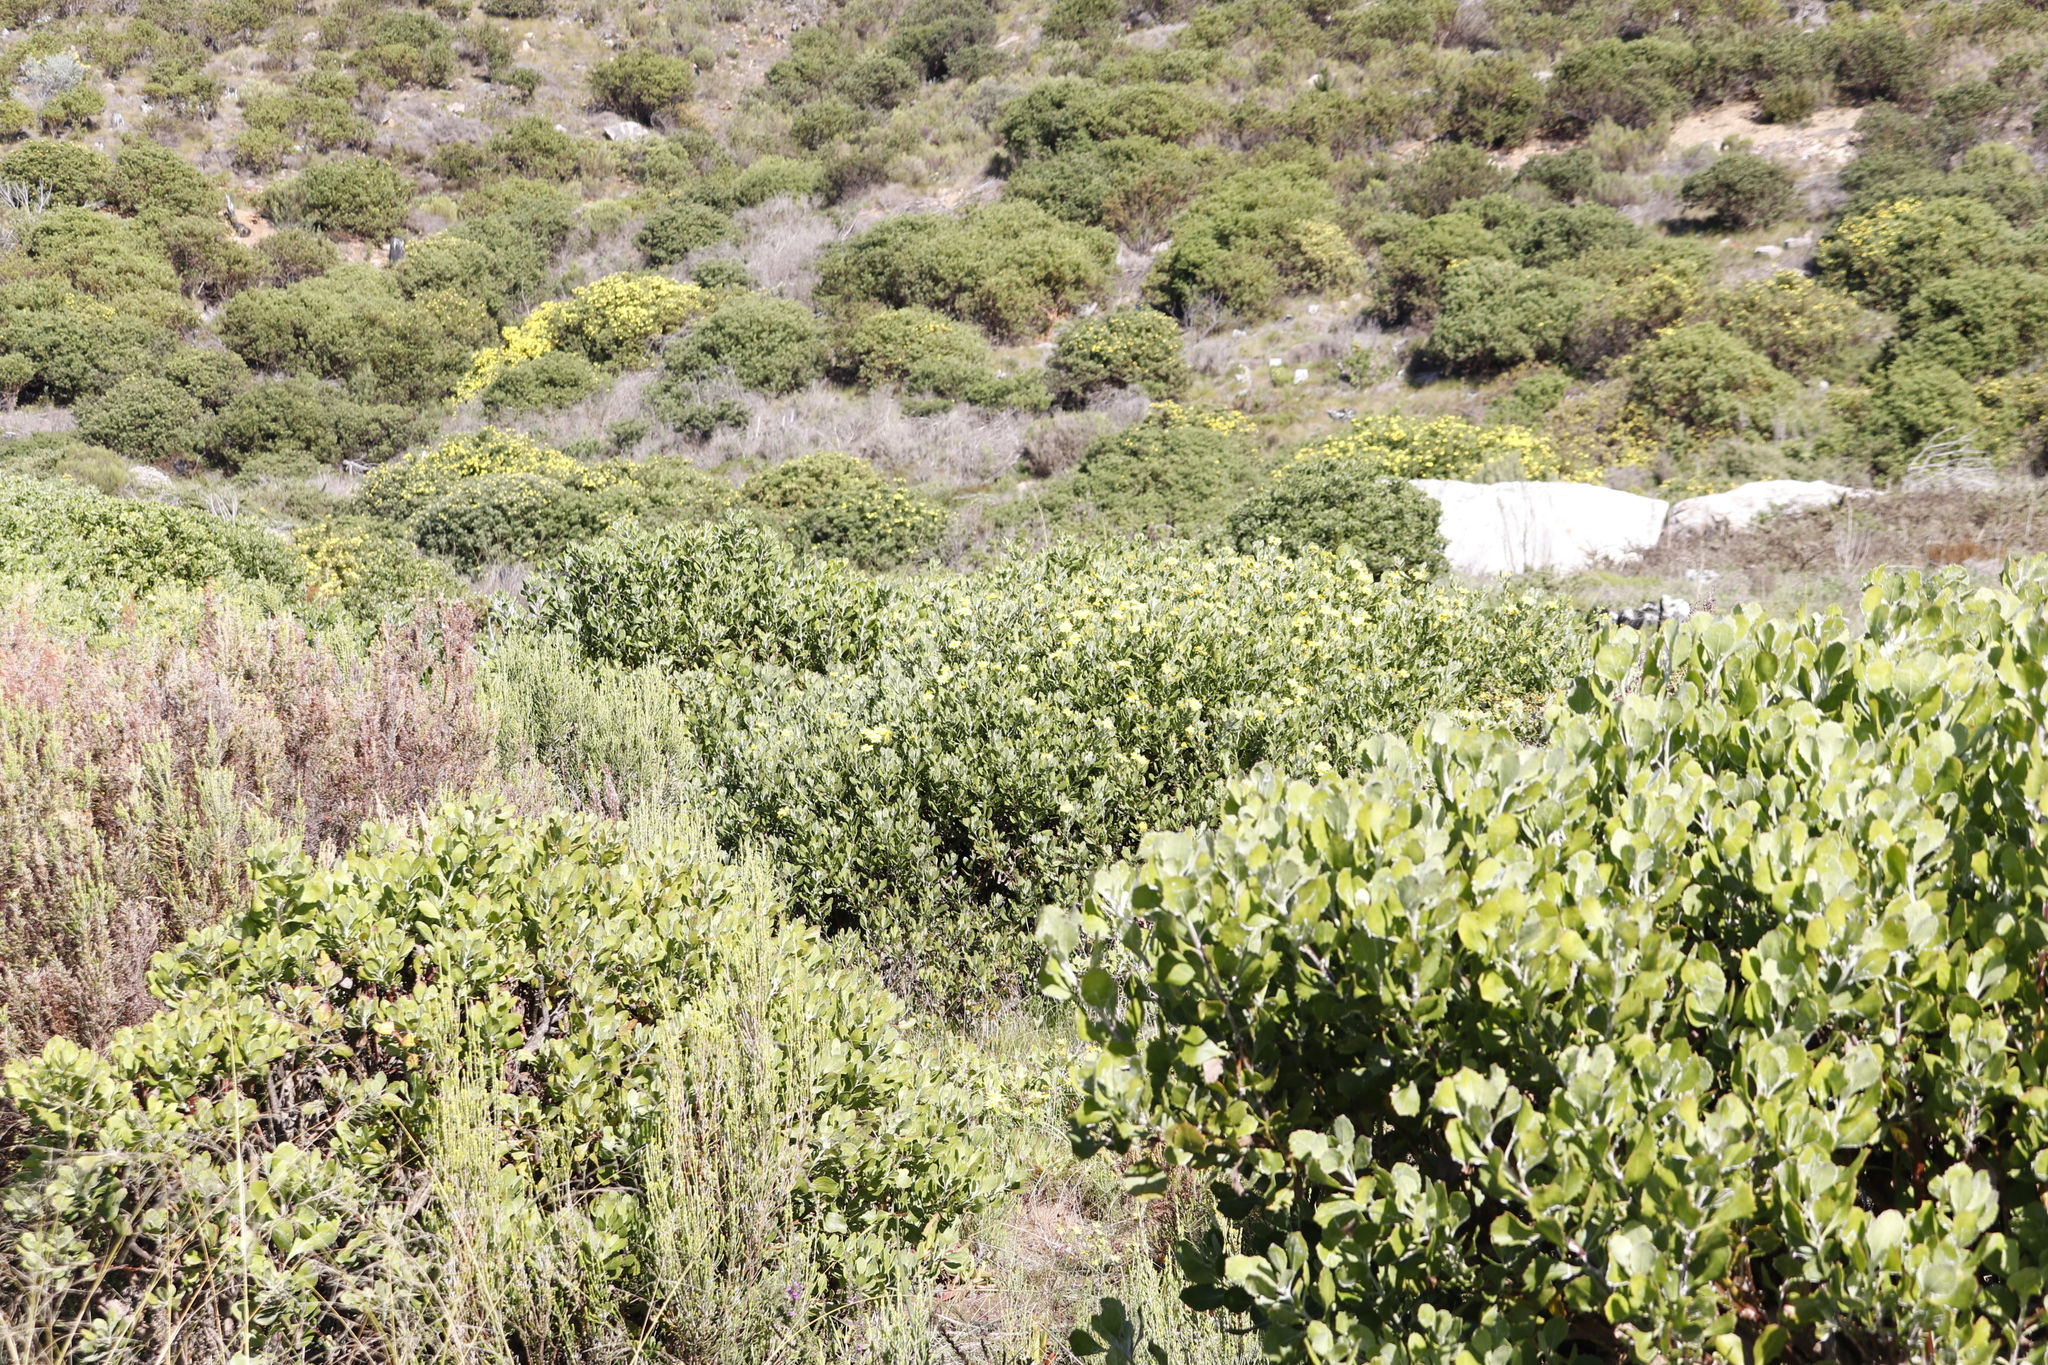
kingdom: Plantae
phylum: Tracheophyta
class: Magnoliopsida
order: Asterales
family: Asteraceae
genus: Osteospermum
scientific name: Osteospermum moniliferum
